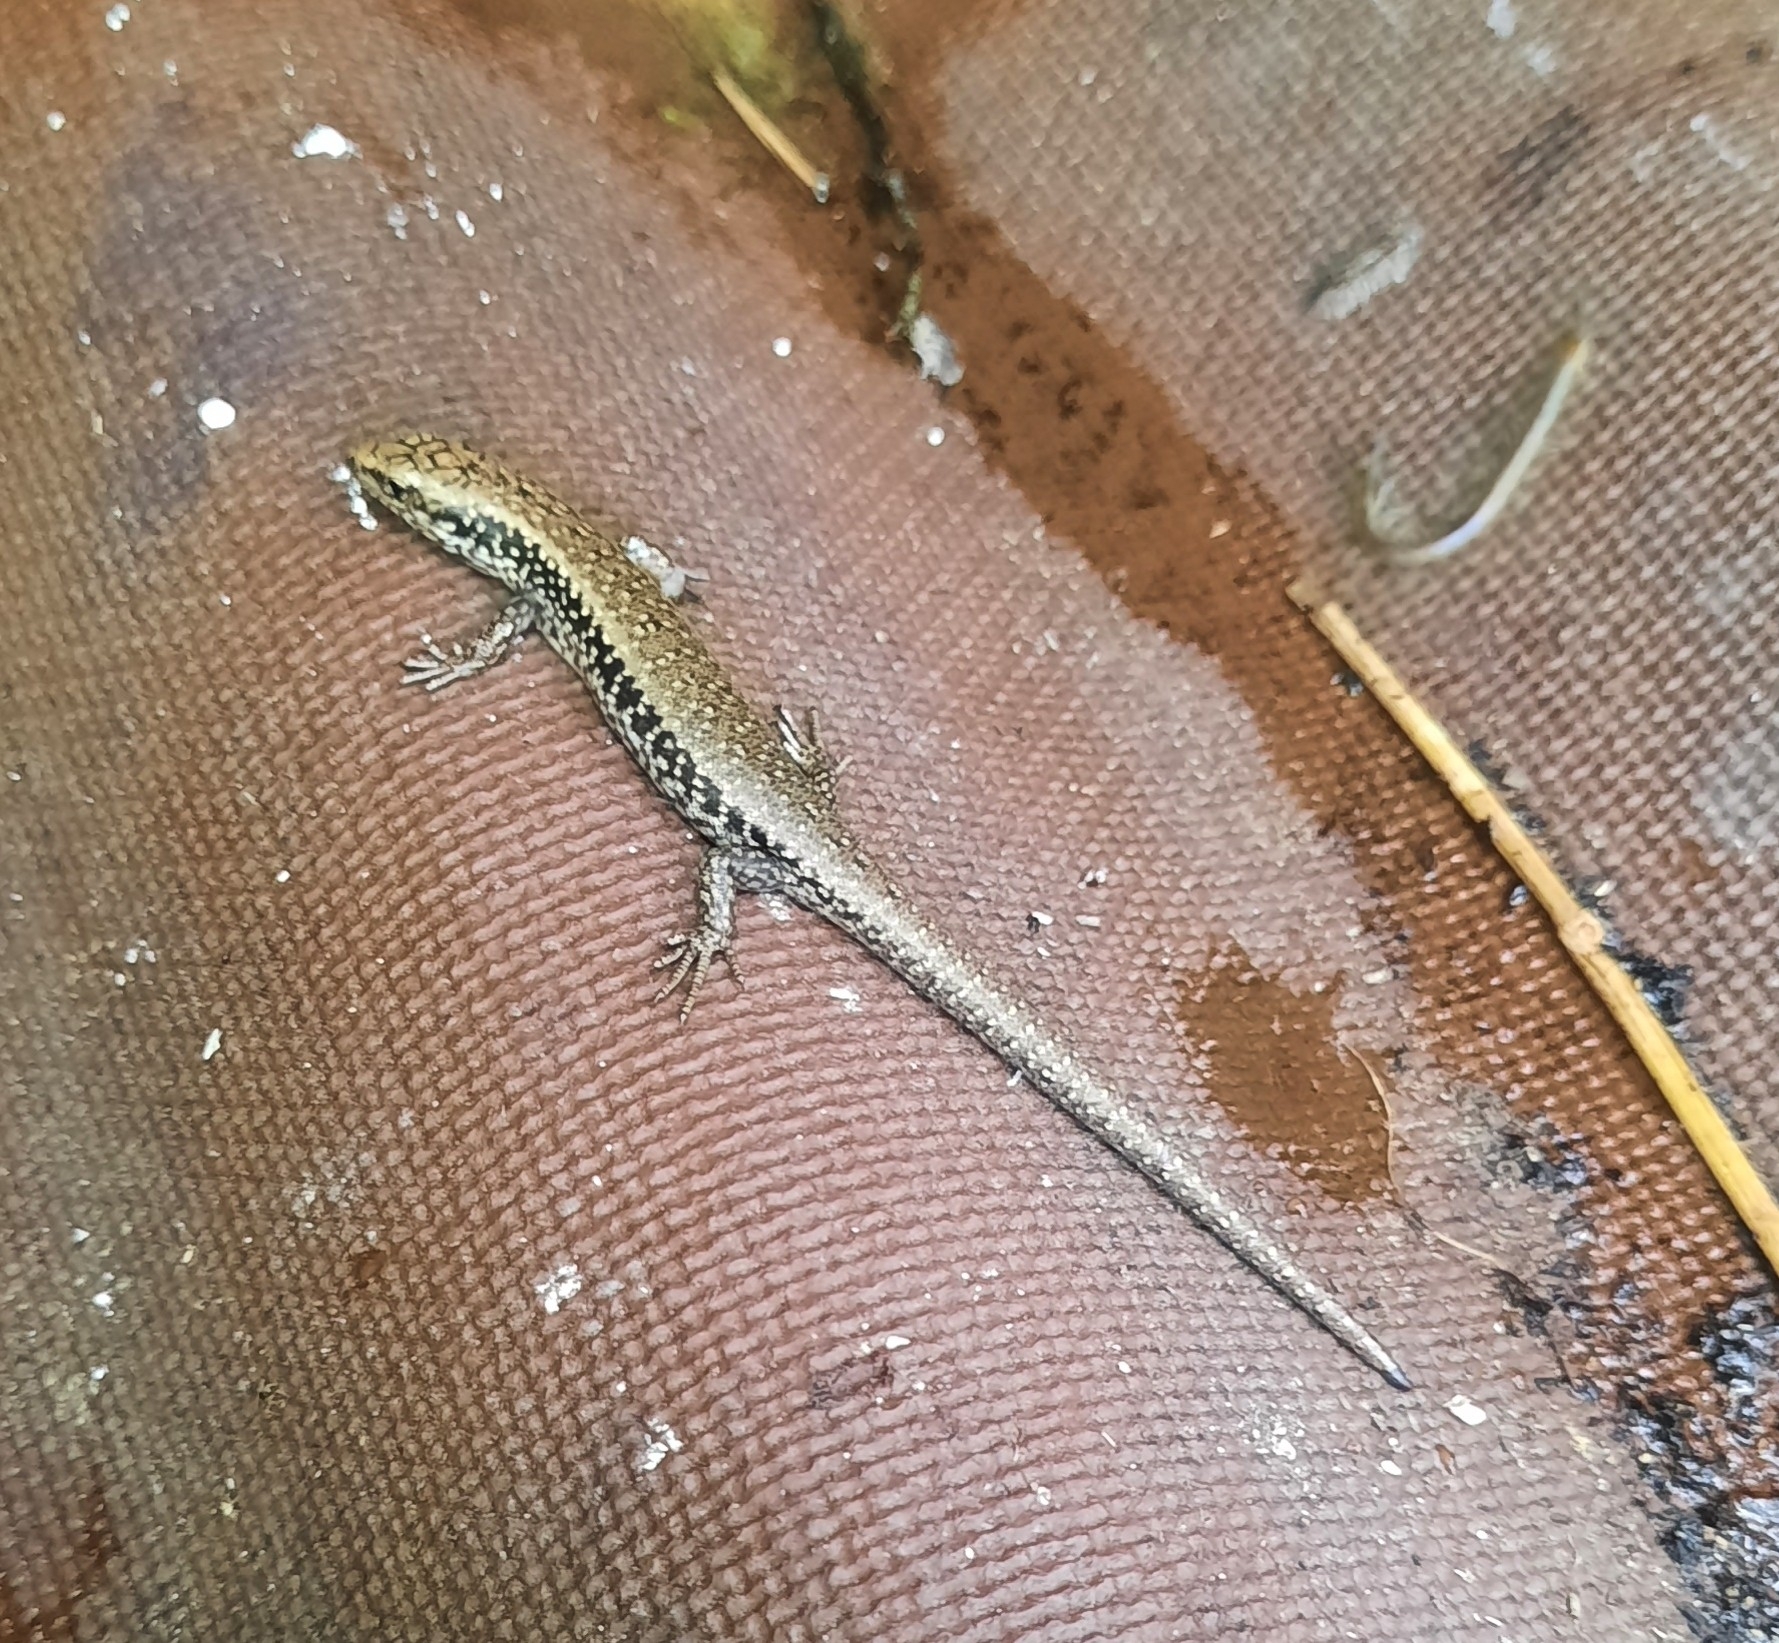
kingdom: Animalia
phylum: Chordata
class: Squamata
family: Scincidae
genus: Oligosoma
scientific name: Oligosoma kokowai
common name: Northern spotted skink
